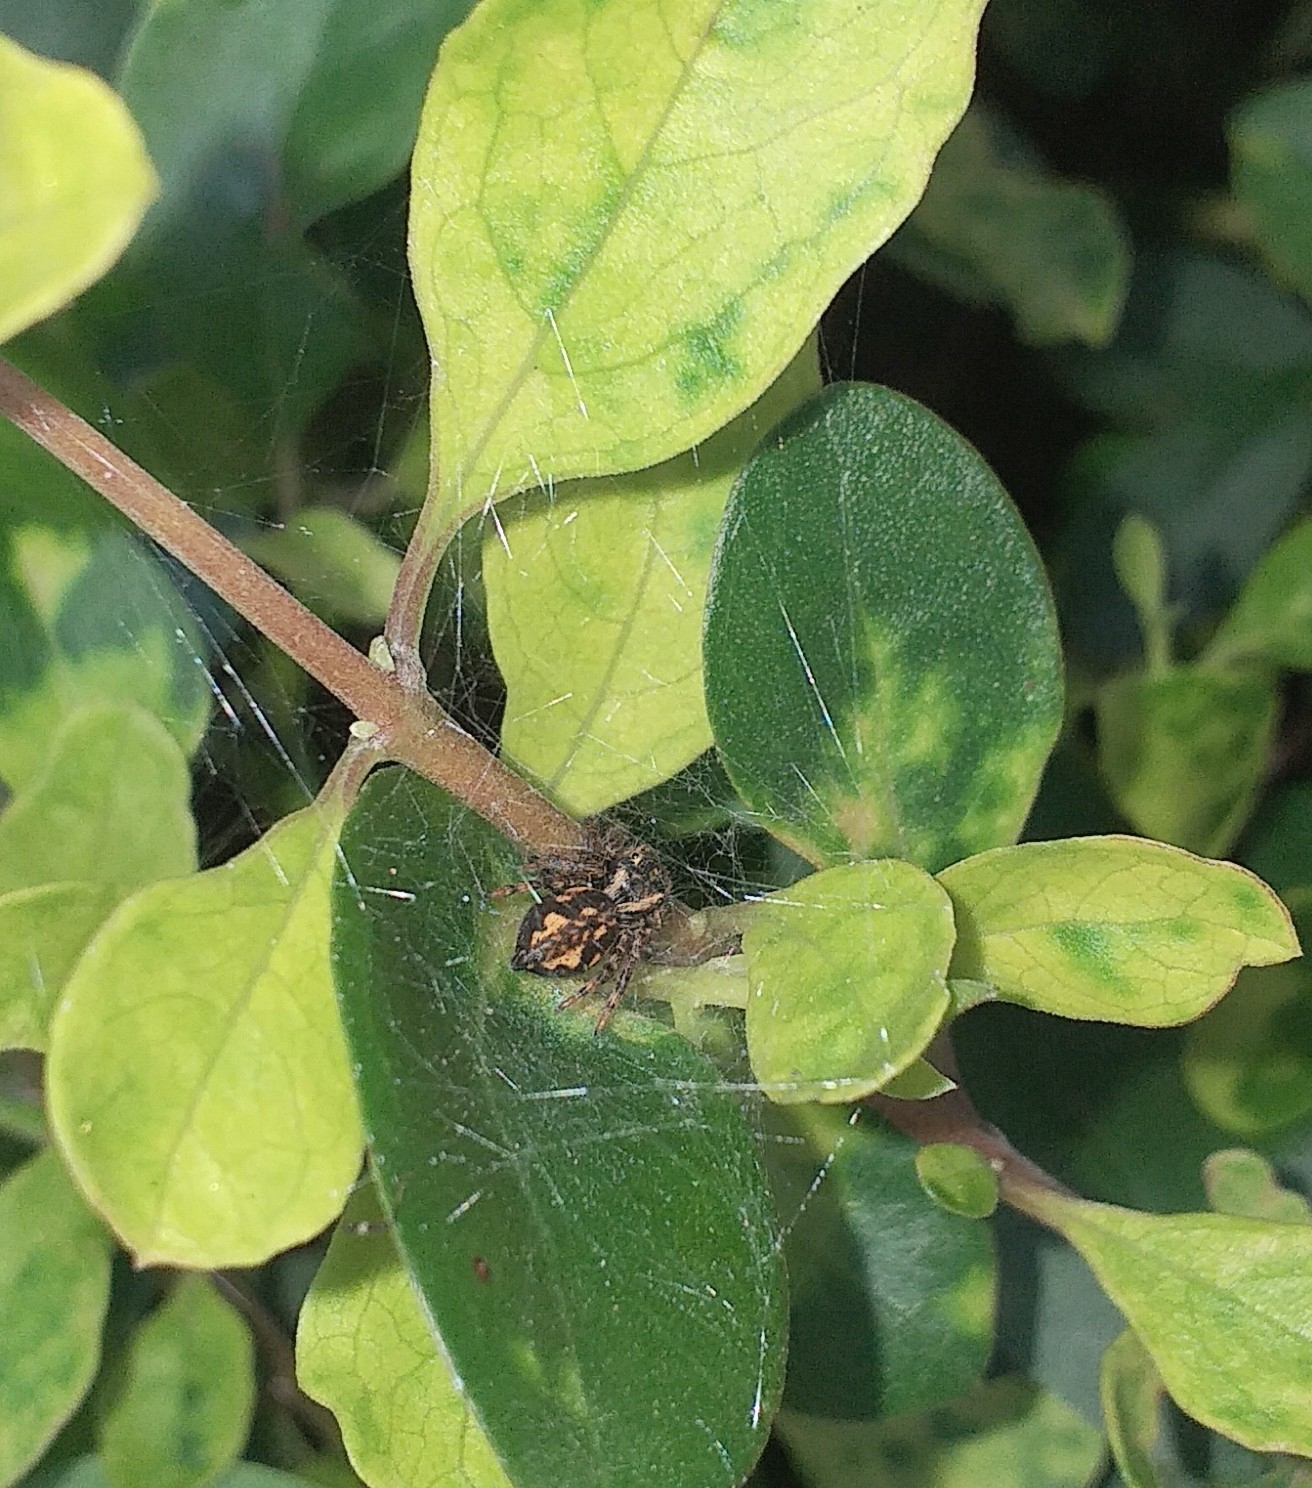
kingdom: Animalia
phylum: Arthropoda
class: Arachnida
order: Araneae
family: Salticidae
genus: Carrhotus
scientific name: Carrhotus viduus
